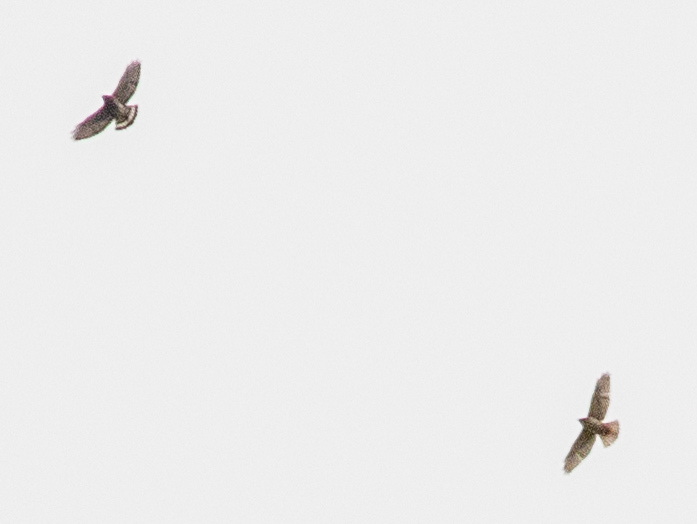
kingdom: Animalia
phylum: Chordata
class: Aves
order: Accipitriformes
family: Accipitridae
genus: Buteo
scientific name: Buteo platypterus
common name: Broad-winged hawk
